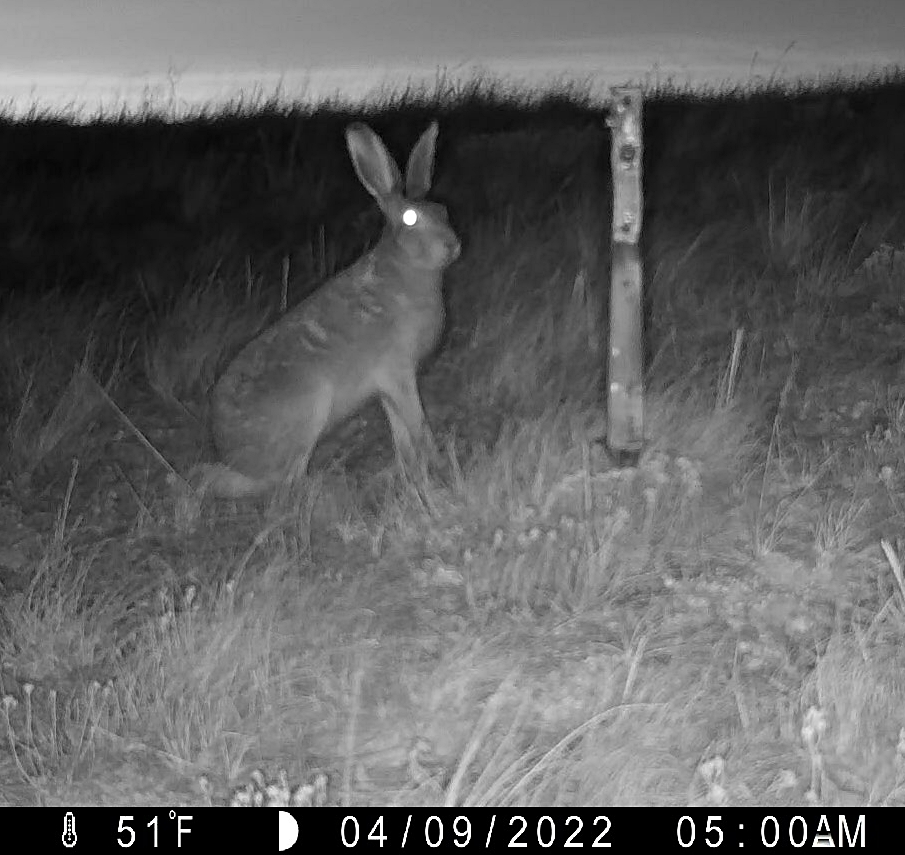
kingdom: Animalia
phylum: Chordata
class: Mammalia
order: Lagomorpha
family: Leporidae
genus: Lepus
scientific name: Lepus townsendii
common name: White-tailed jackrabbit
